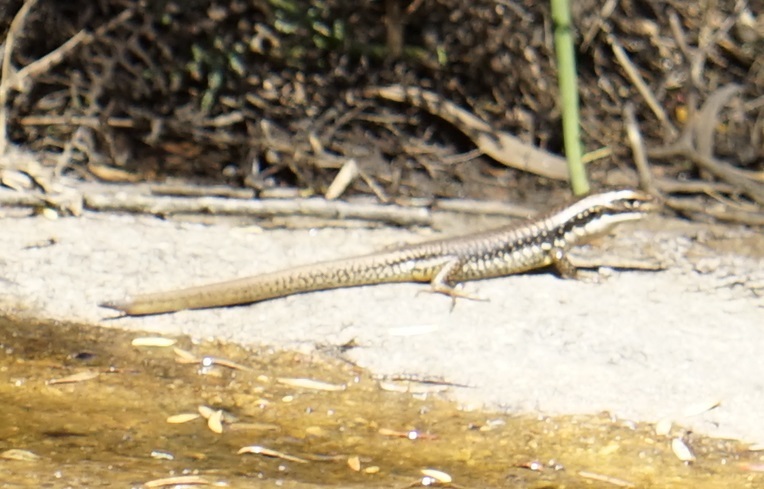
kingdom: Animalia
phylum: Chordata
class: Squamata
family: Scincidae
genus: Eulamprus
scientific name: Eulamprus heatwolei
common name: Warm-temperate water-skink
